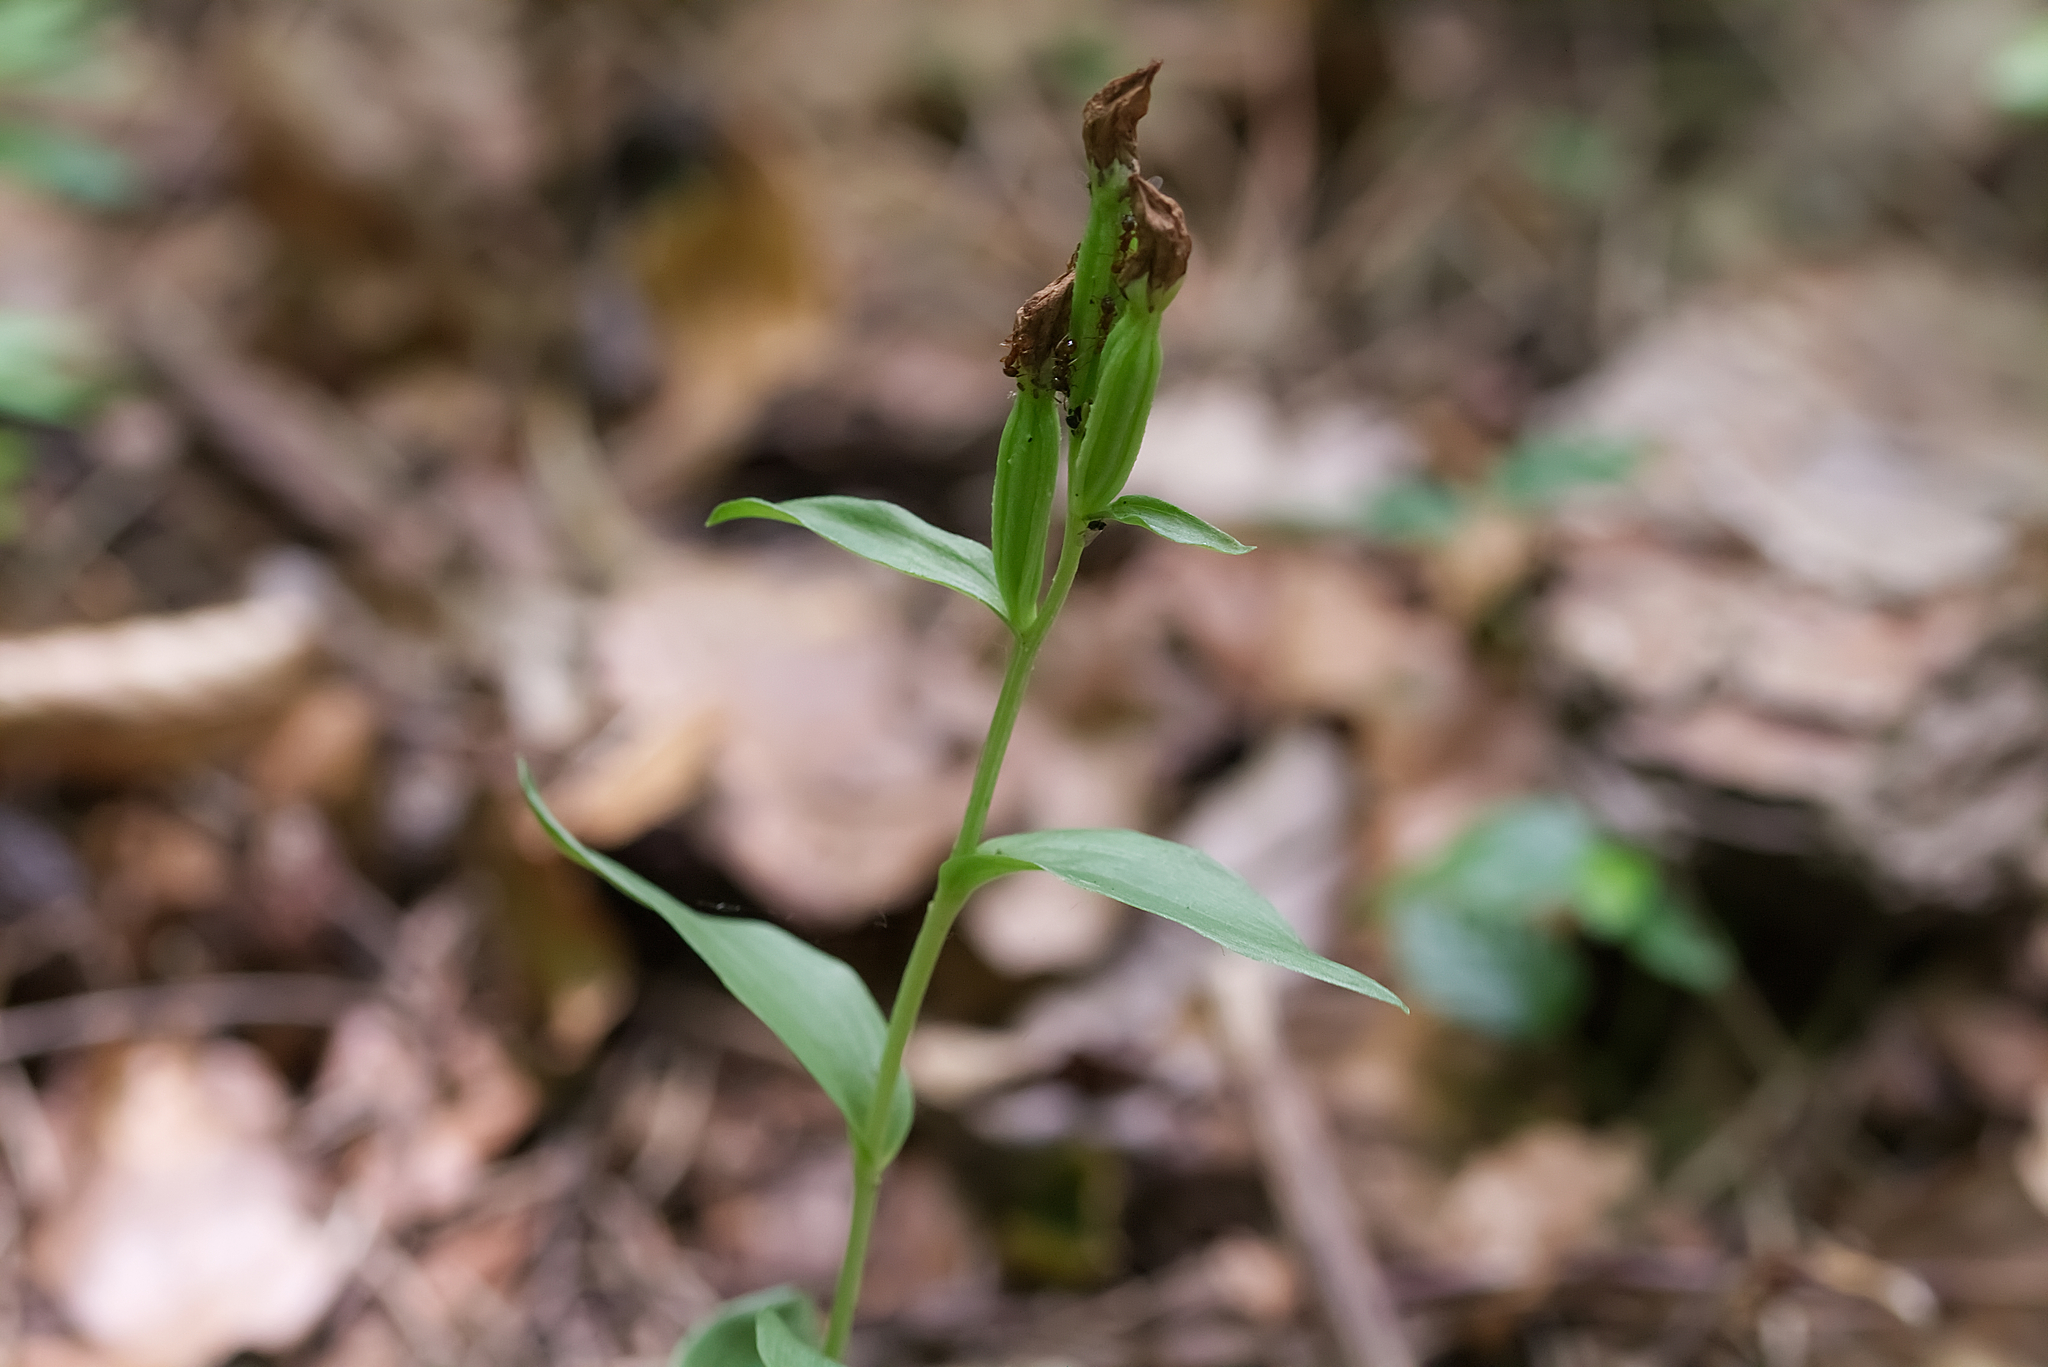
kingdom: Plantae
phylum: Tracheophyta
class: Liliopsida
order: Asparagales
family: Orchidaceae
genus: Cephalanthera
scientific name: Cephalanthera damasonium
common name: White helleborine
